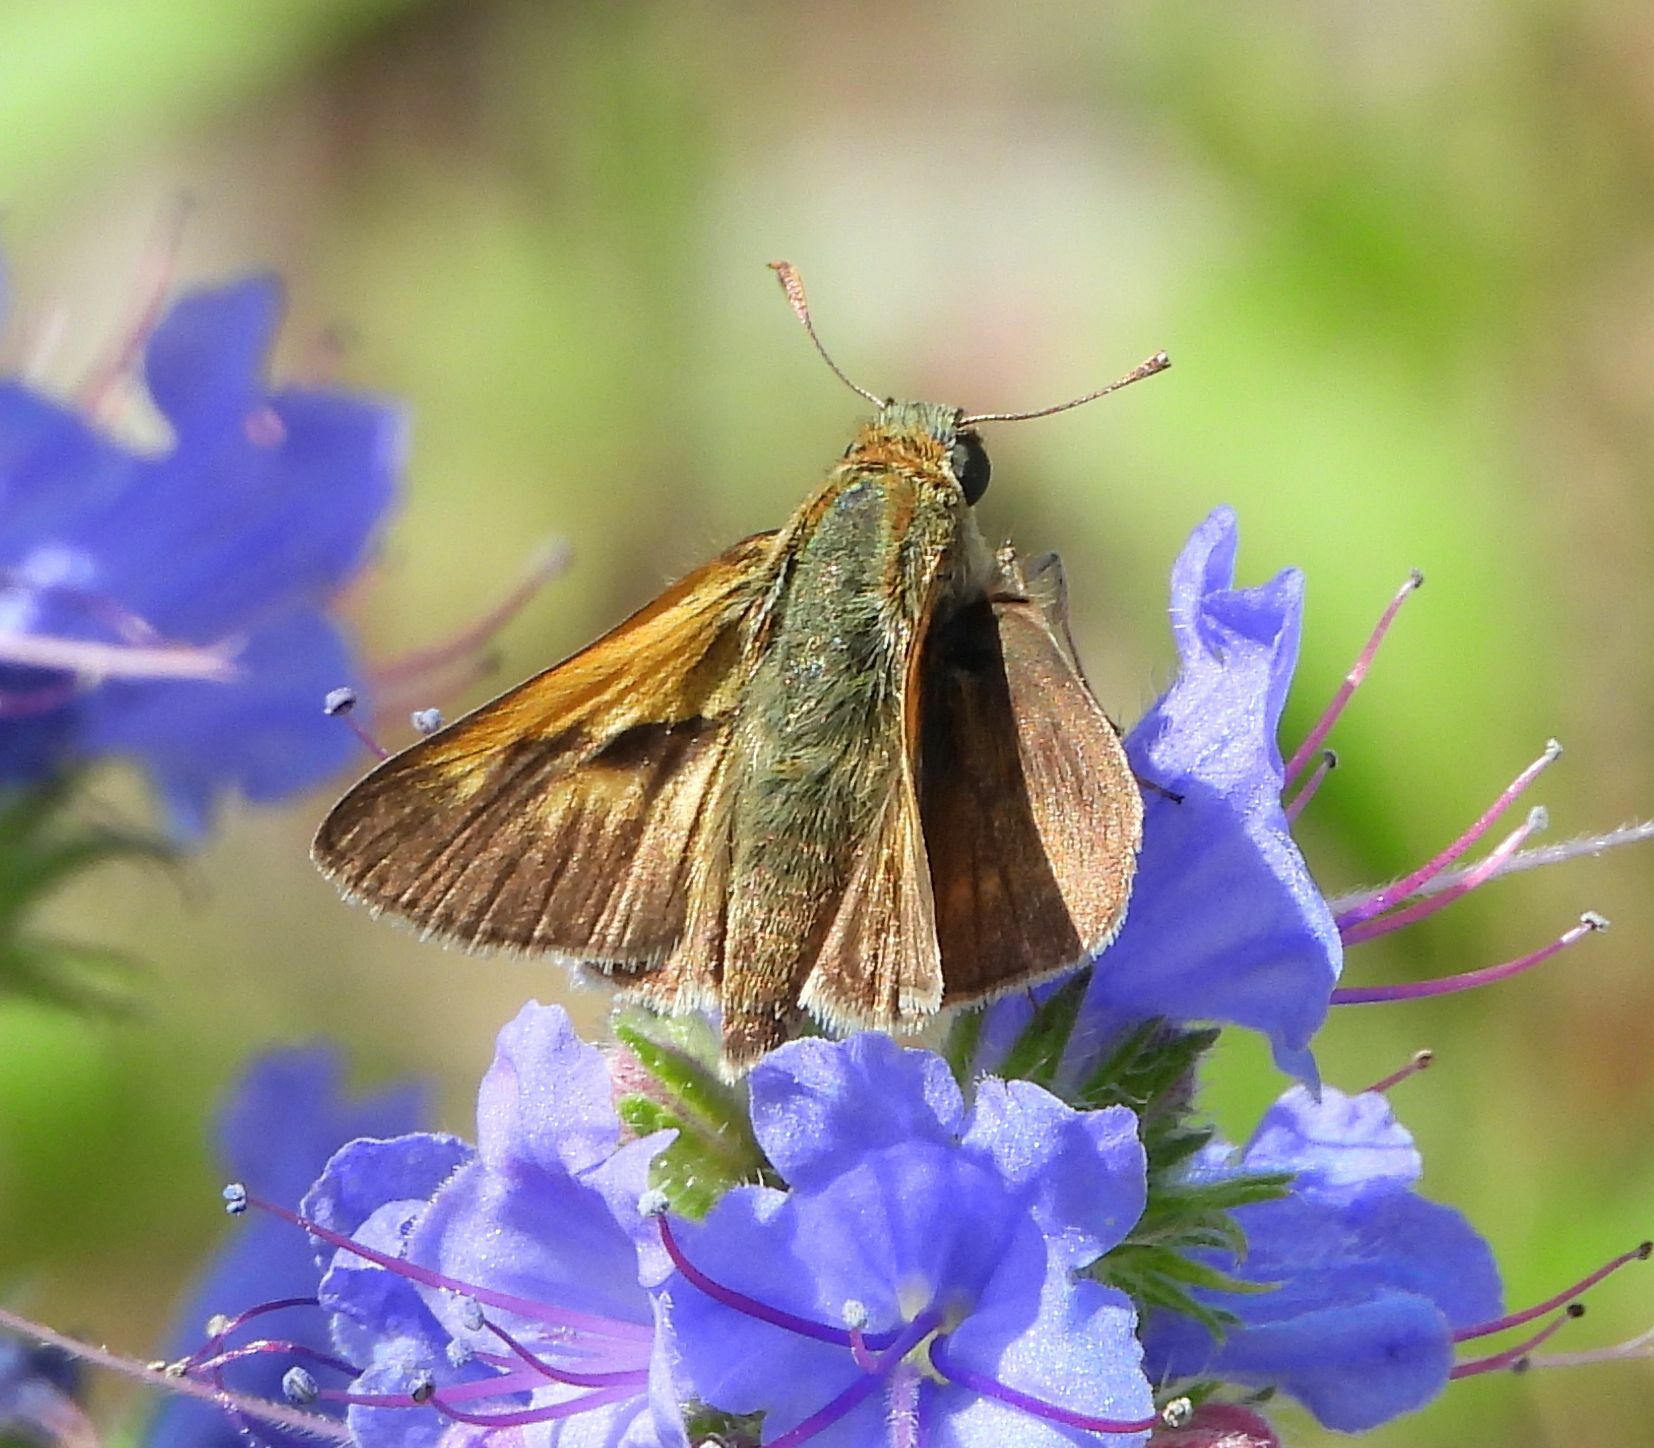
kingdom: Animalia
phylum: Arthropoda
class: Insecta
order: Lepidoptera
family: Hesperiidae
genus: Polites
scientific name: Polites origenes
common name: Crossline skipper
